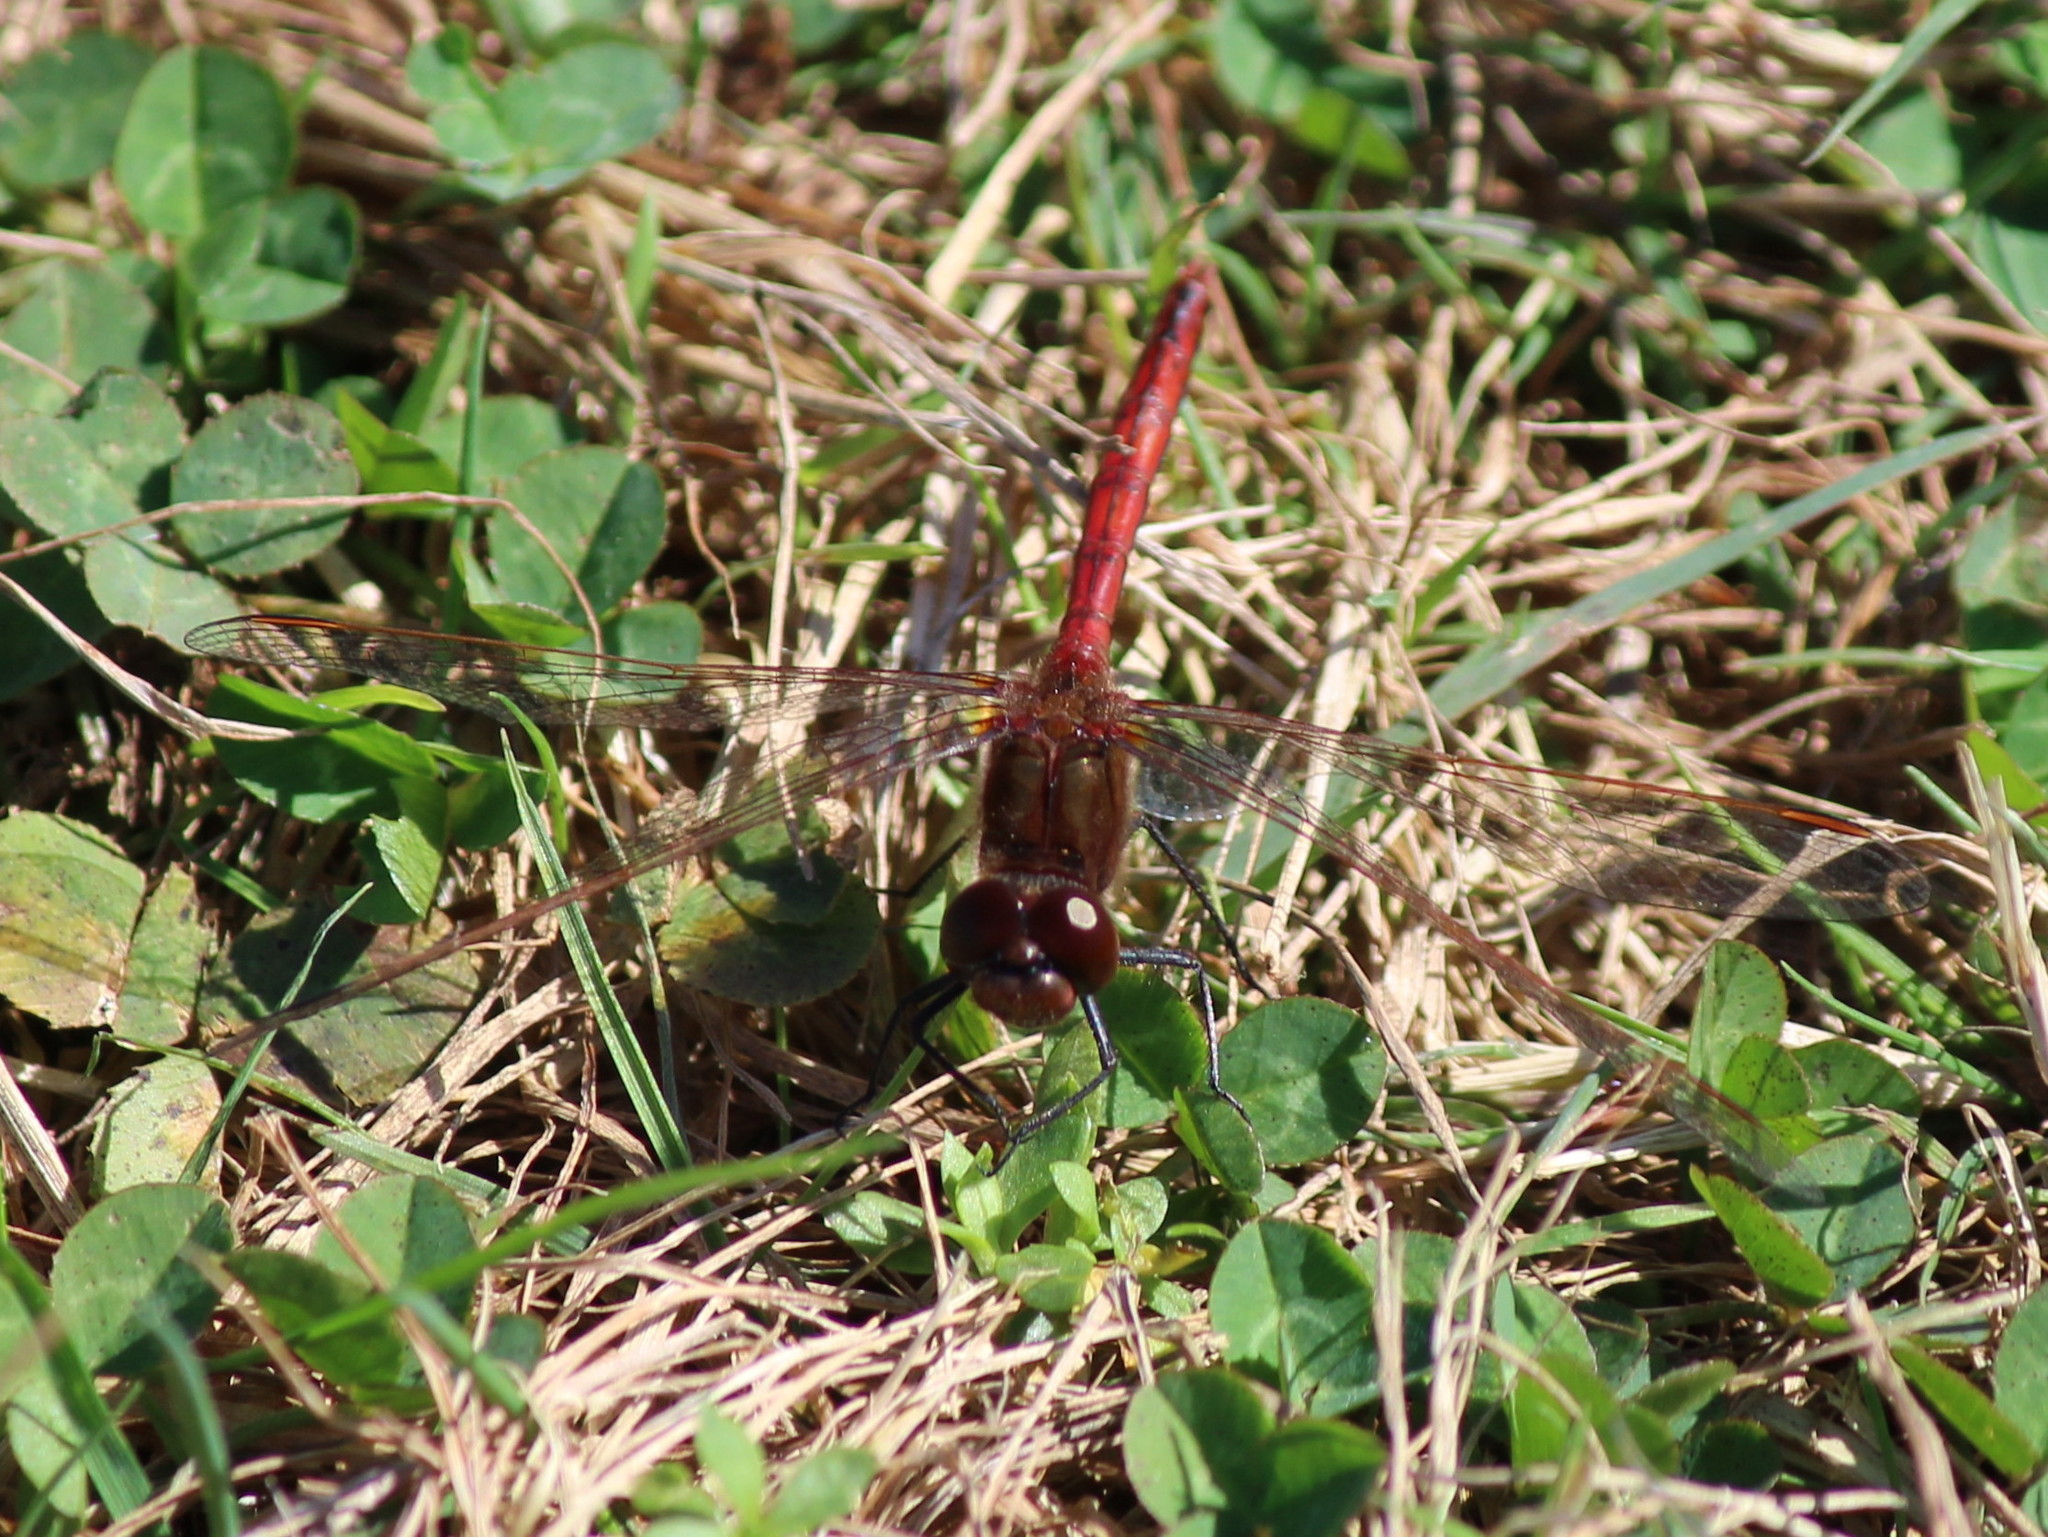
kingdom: Animalia
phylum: Arthropoda
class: Insecta
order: Odonata
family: Libellulidae
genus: Sympetrum
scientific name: Sympetrum costiferum
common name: Saffron-winged meadowhawk
